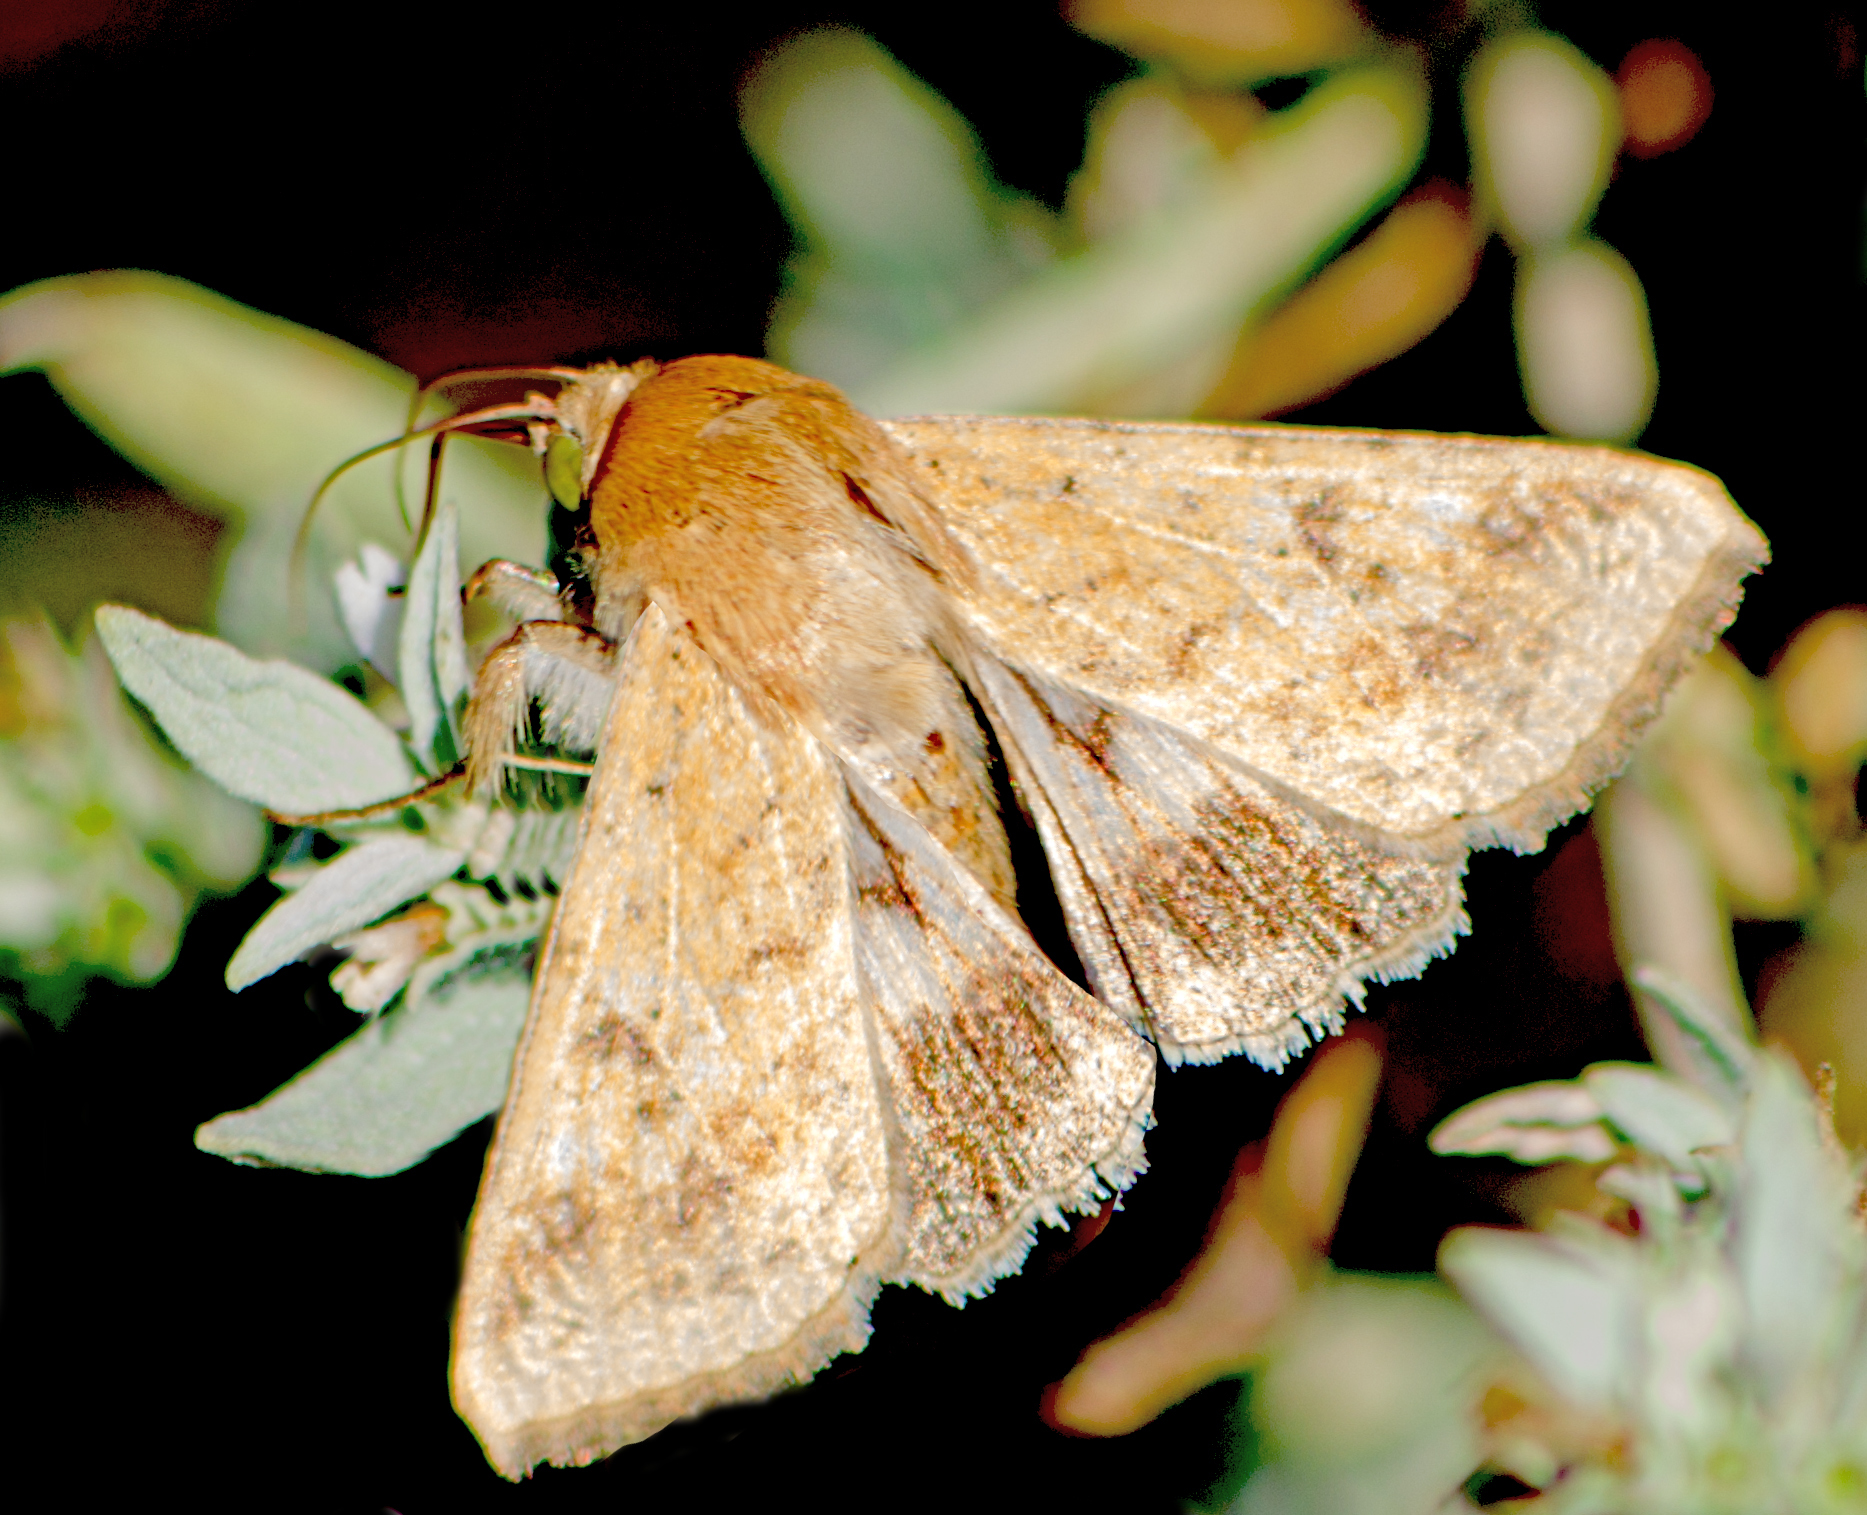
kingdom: Animalia
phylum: Arthropoda
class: Insecta
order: Lepidoptera
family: Noctuidae
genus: Helicoverpa
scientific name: Helicoverpa armigera
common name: Cotton bollworm
